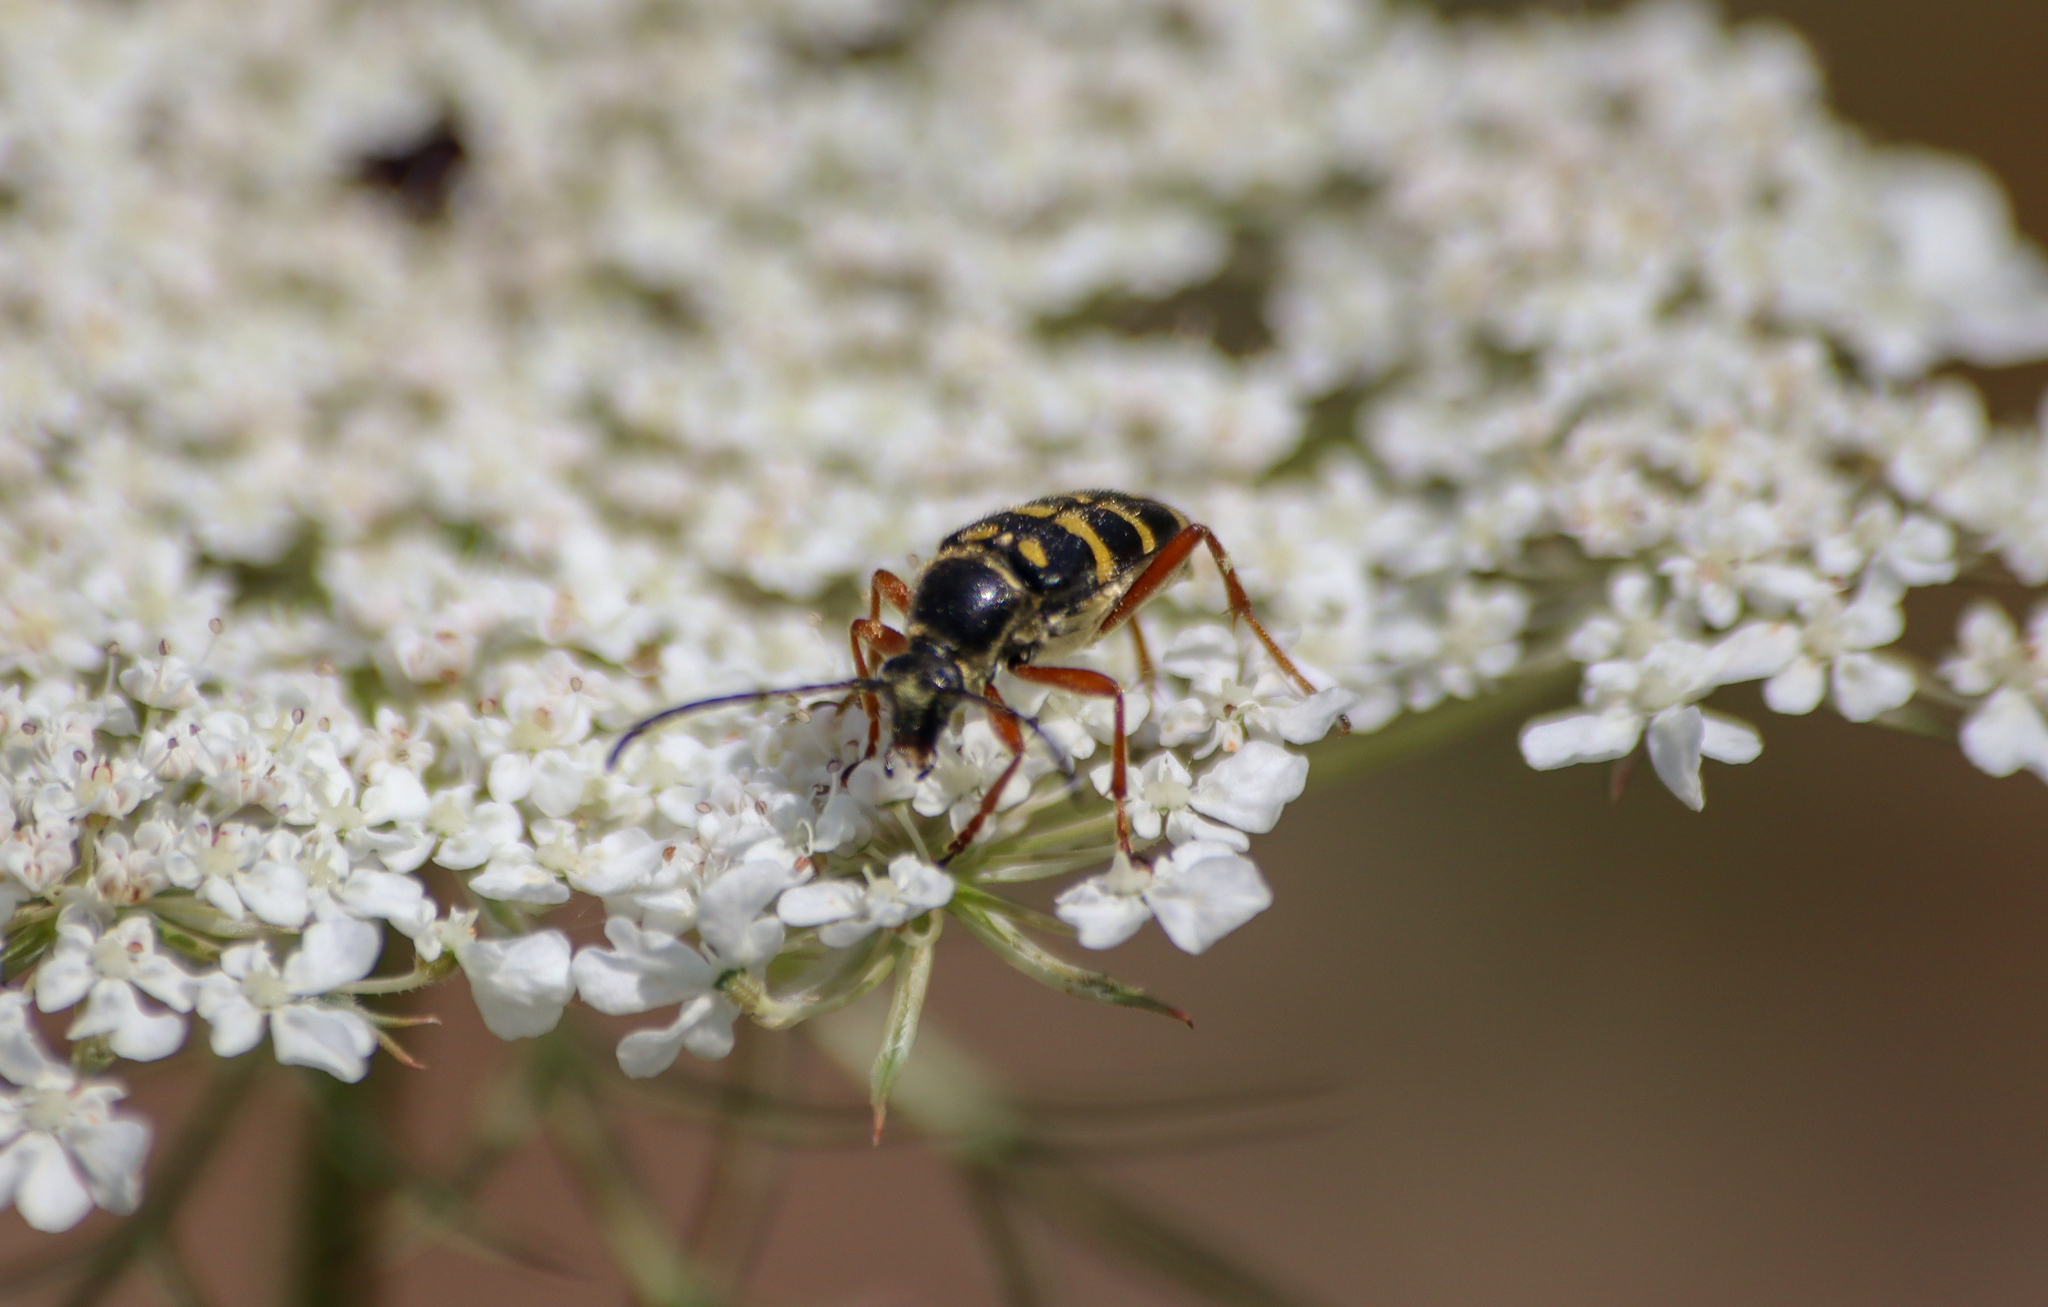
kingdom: Animalia
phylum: Arthropoda
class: Insecta
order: Coleoptera
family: Cerambycidae
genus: Typocerus
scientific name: Typocerus velutinus
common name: Banded longhorn beetle
